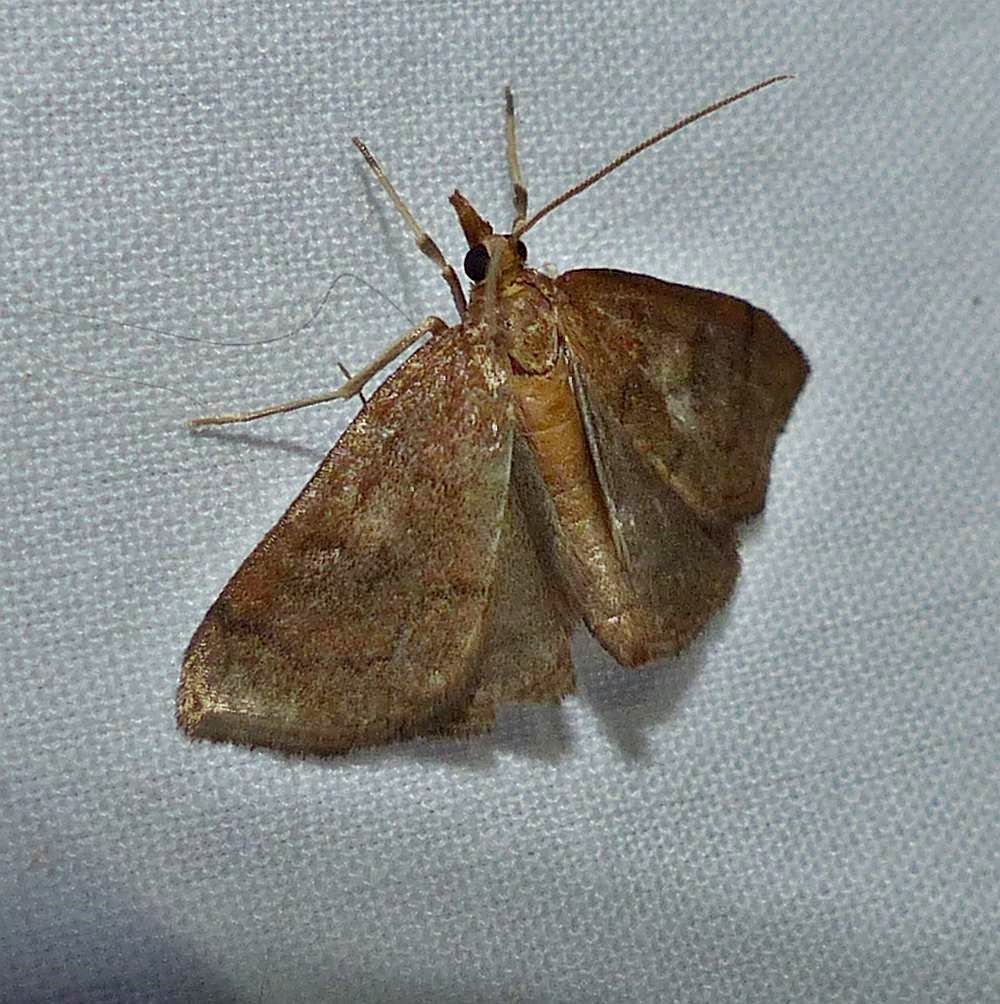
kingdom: Animalia
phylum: Arthropoda
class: Insecta
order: Lepidoptera
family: Crambidae
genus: Fumibotys
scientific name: Fumibotys fumalis
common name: Mint root borer moth
